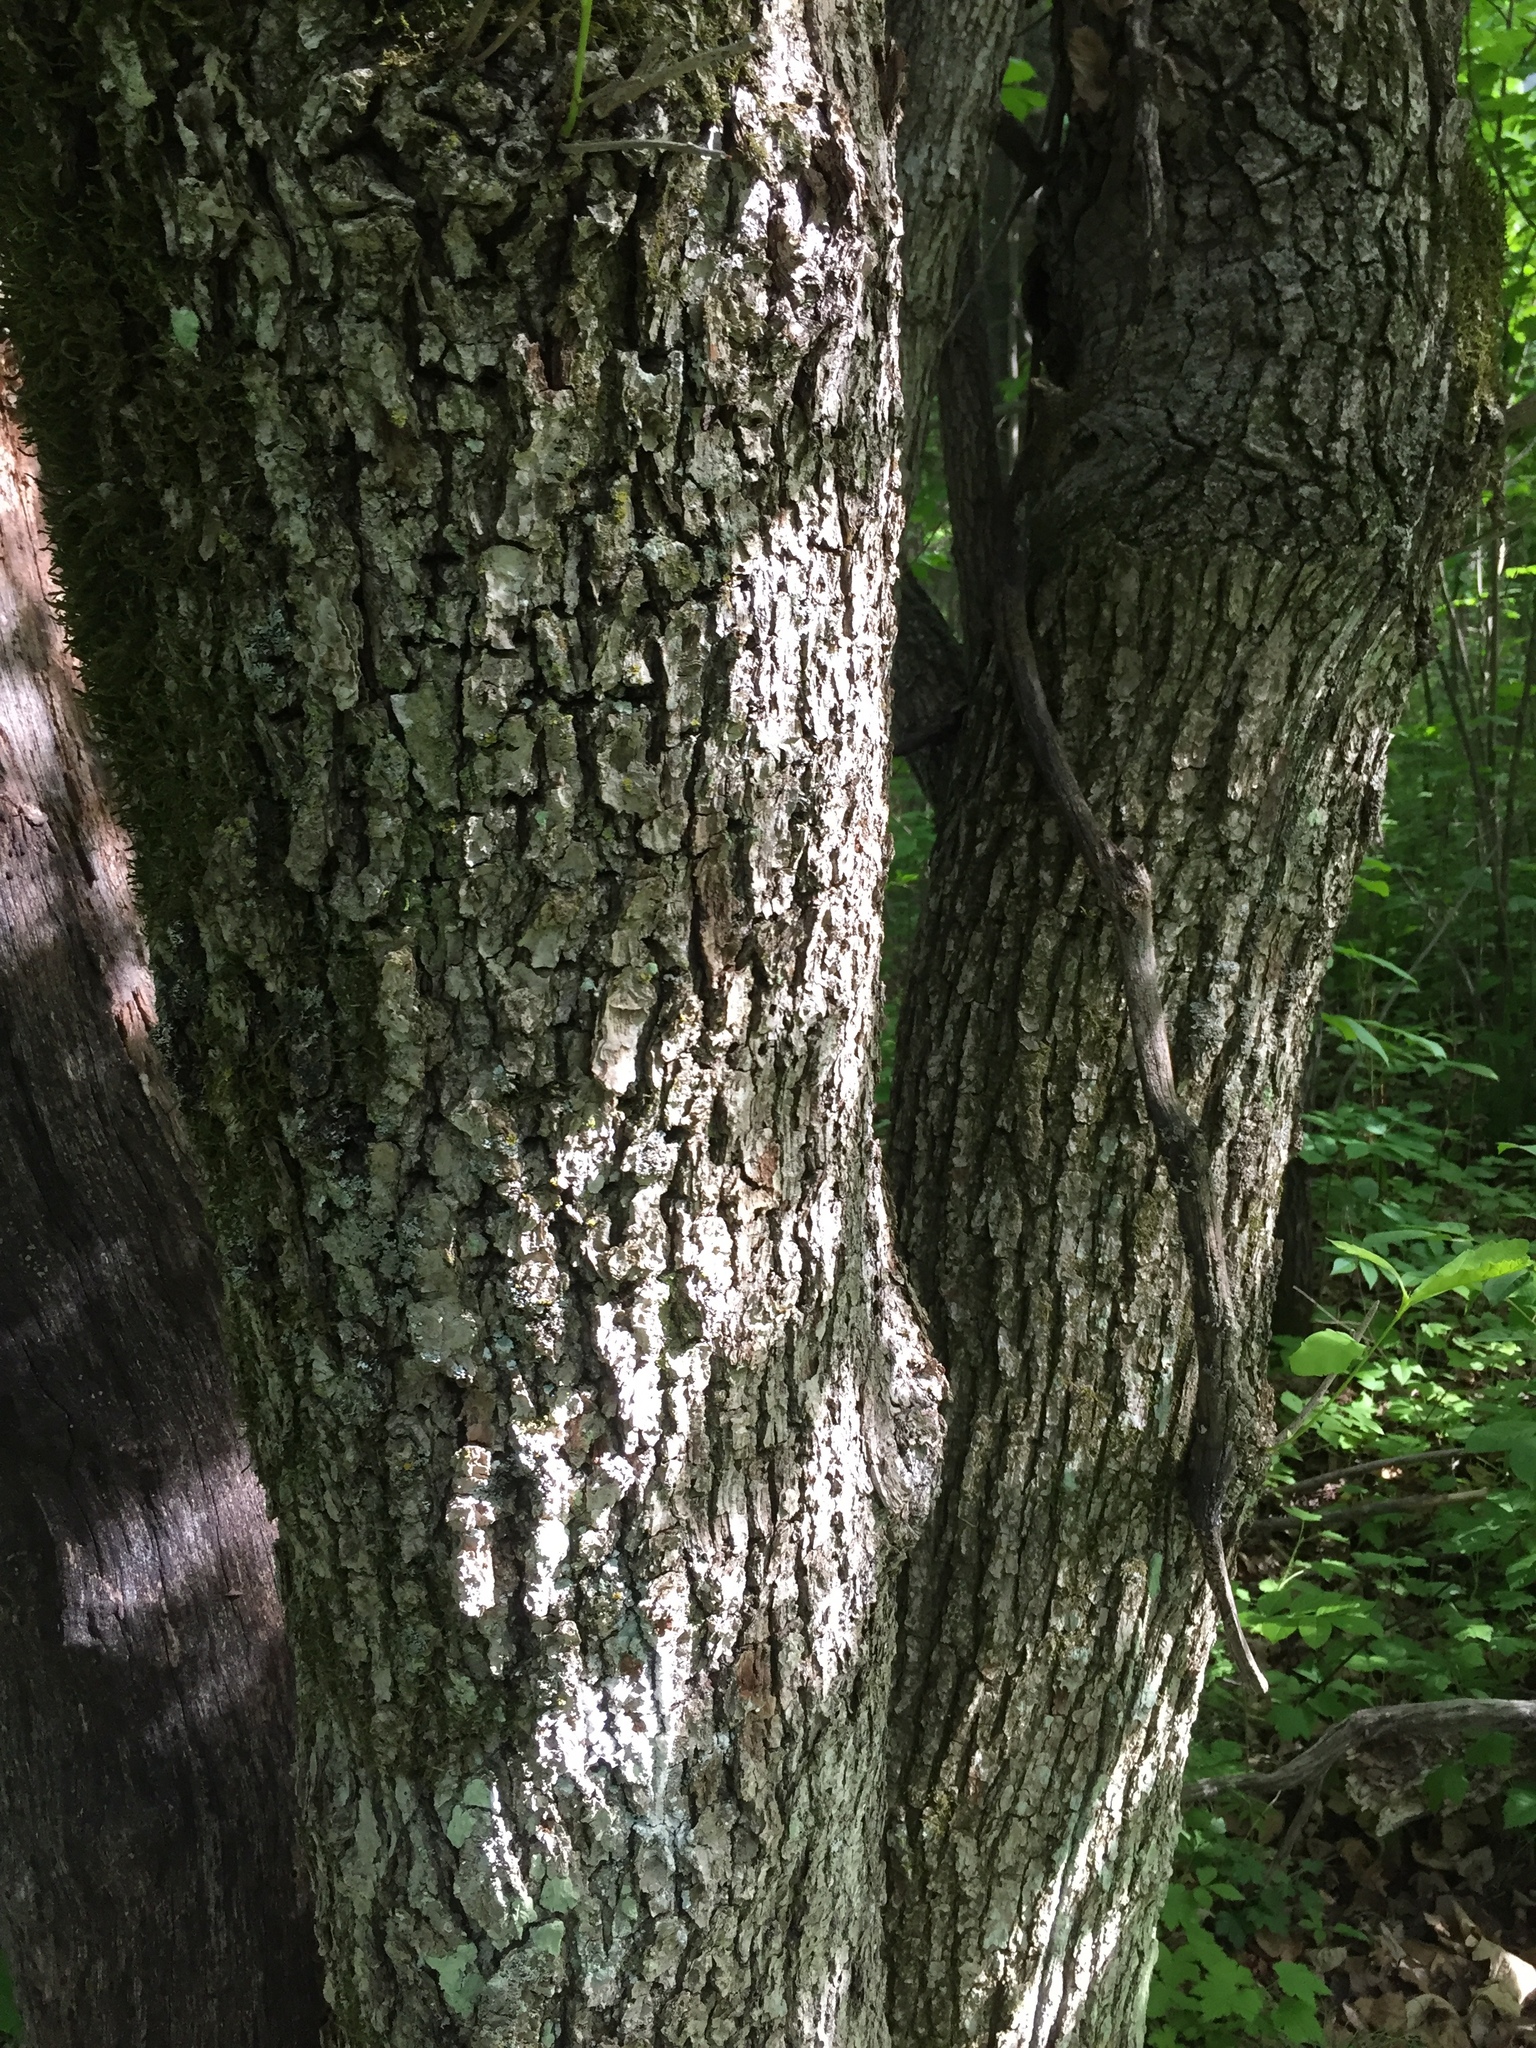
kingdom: Plantae
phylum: Tracheophyta
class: Magnoliopsida
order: Fagales
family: Fagaceae
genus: Quercus
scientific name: Quercus macrocarpa
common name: Bur oak
